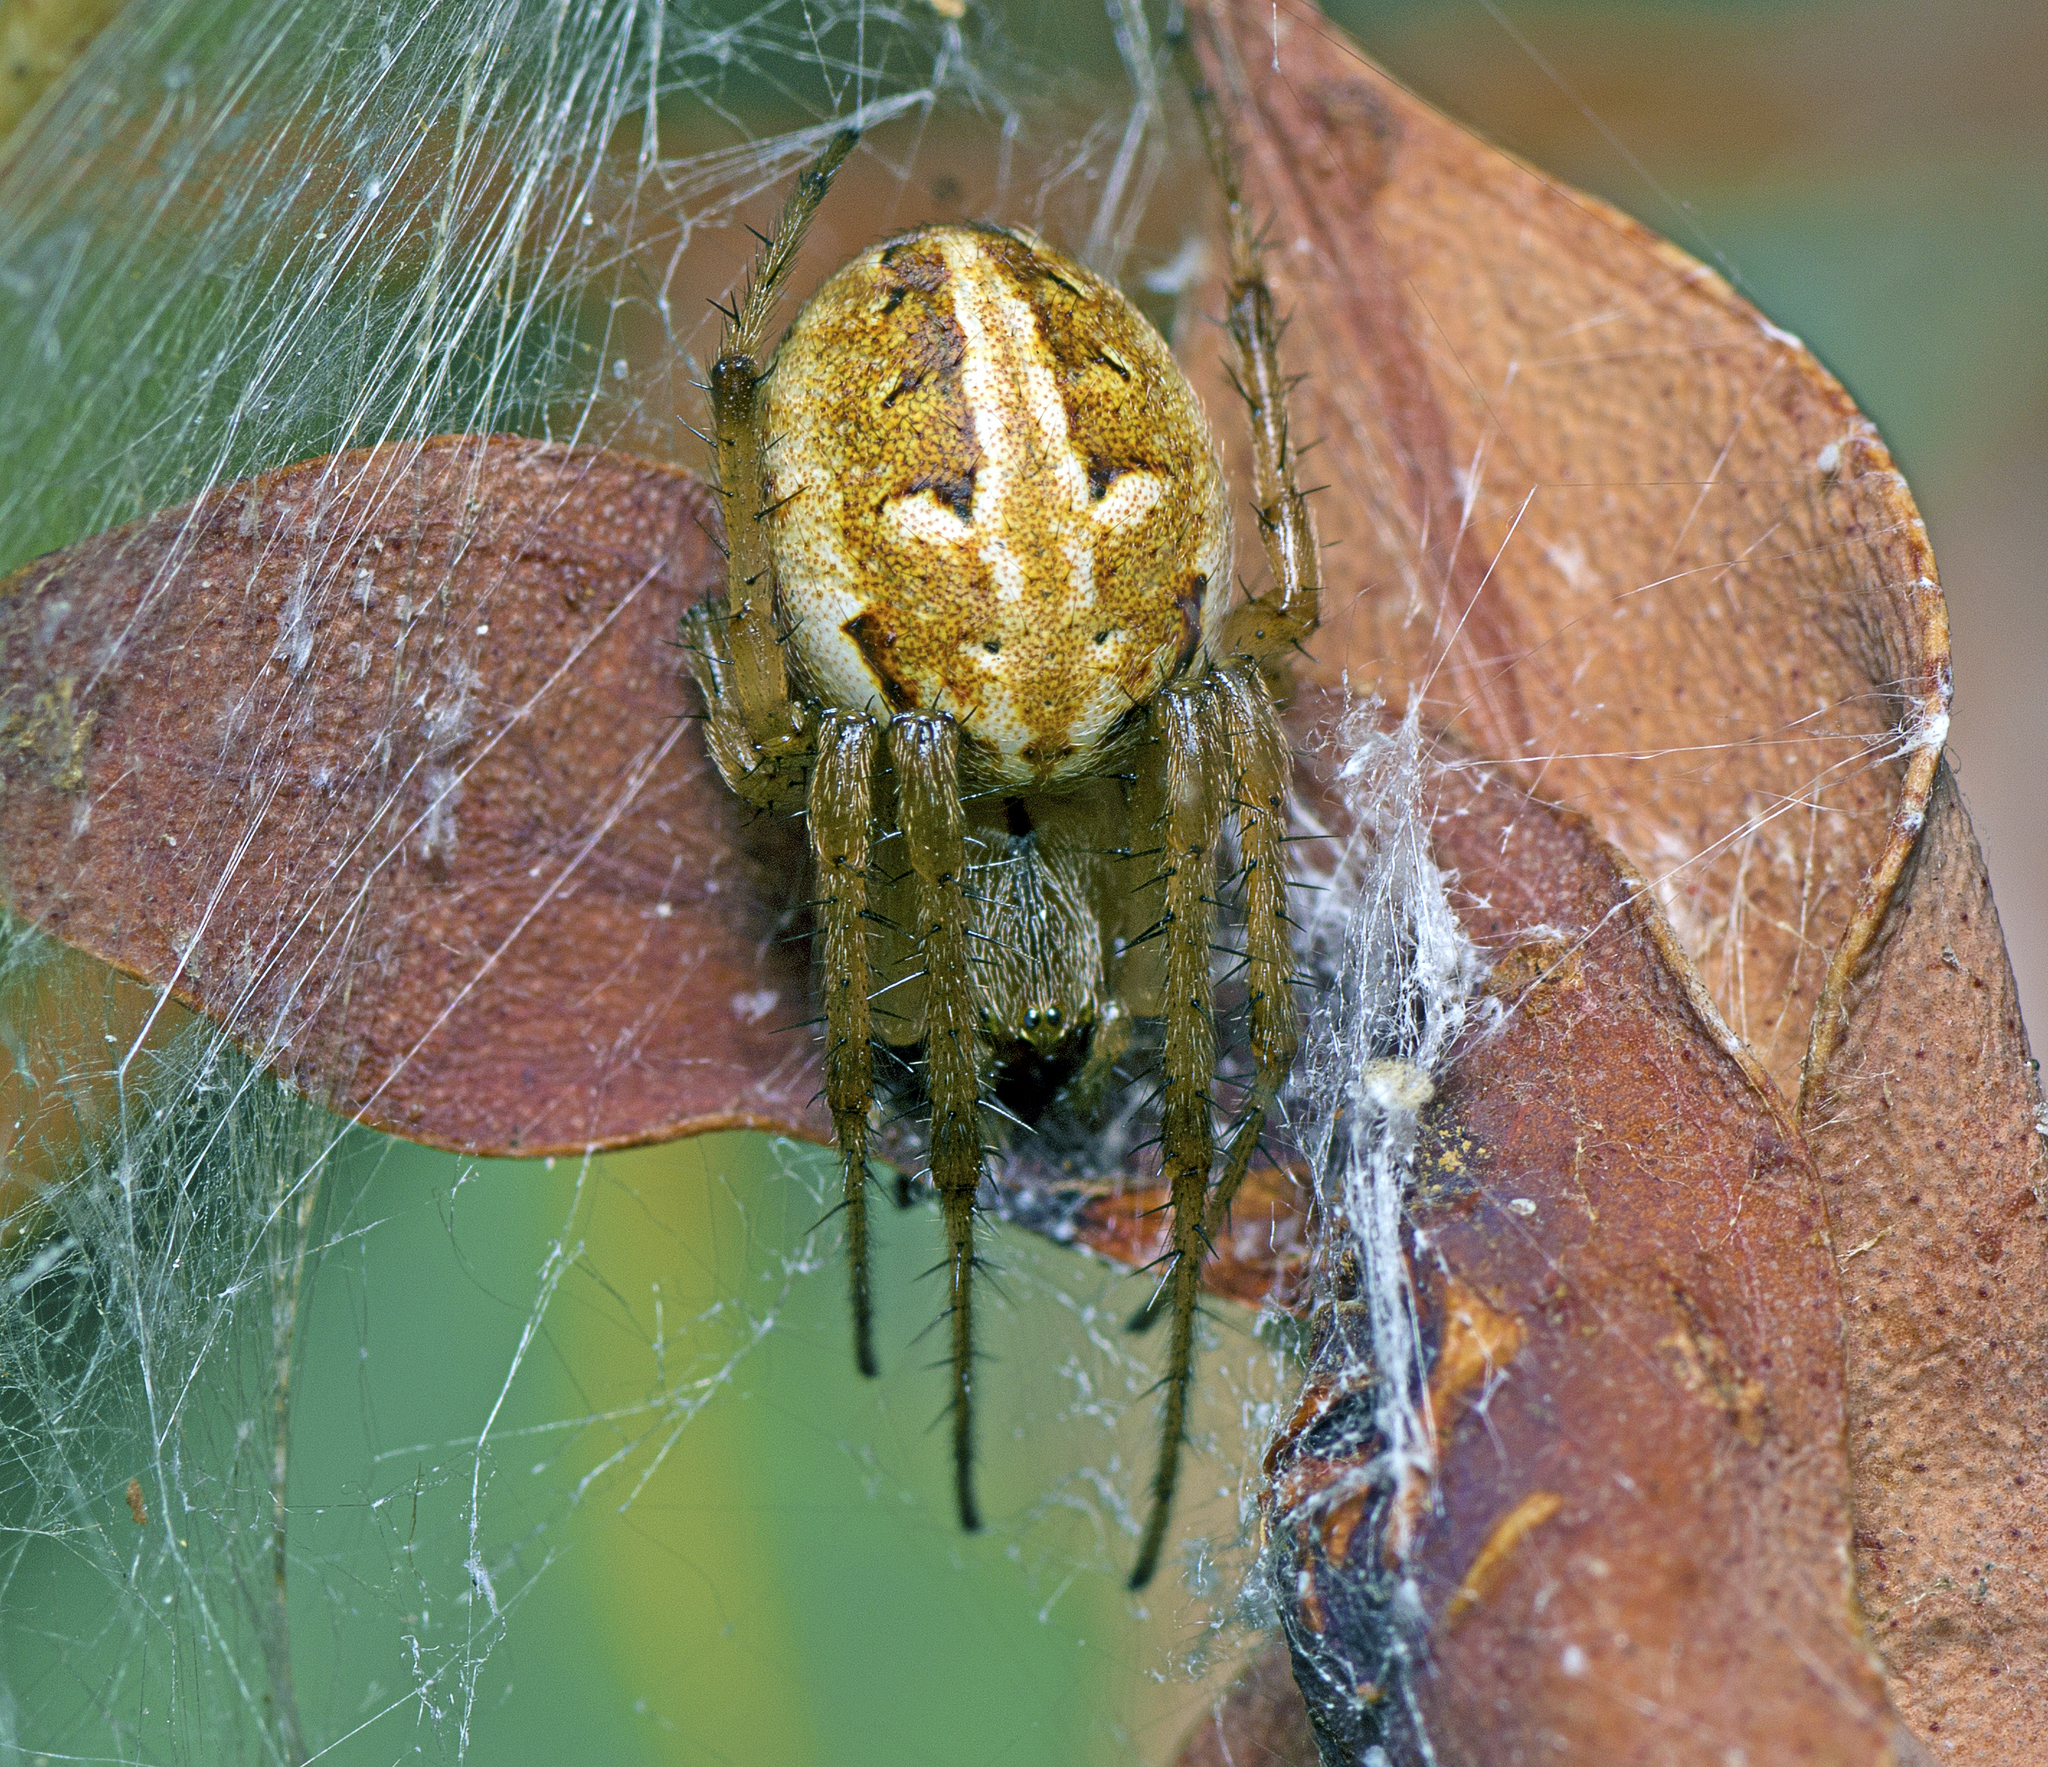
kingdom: Animalia
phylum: Arthropoda
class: Arachnida
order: Araneae
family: Araneidae
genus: Neoscona
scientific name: Neoscona theisi
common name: Spider
